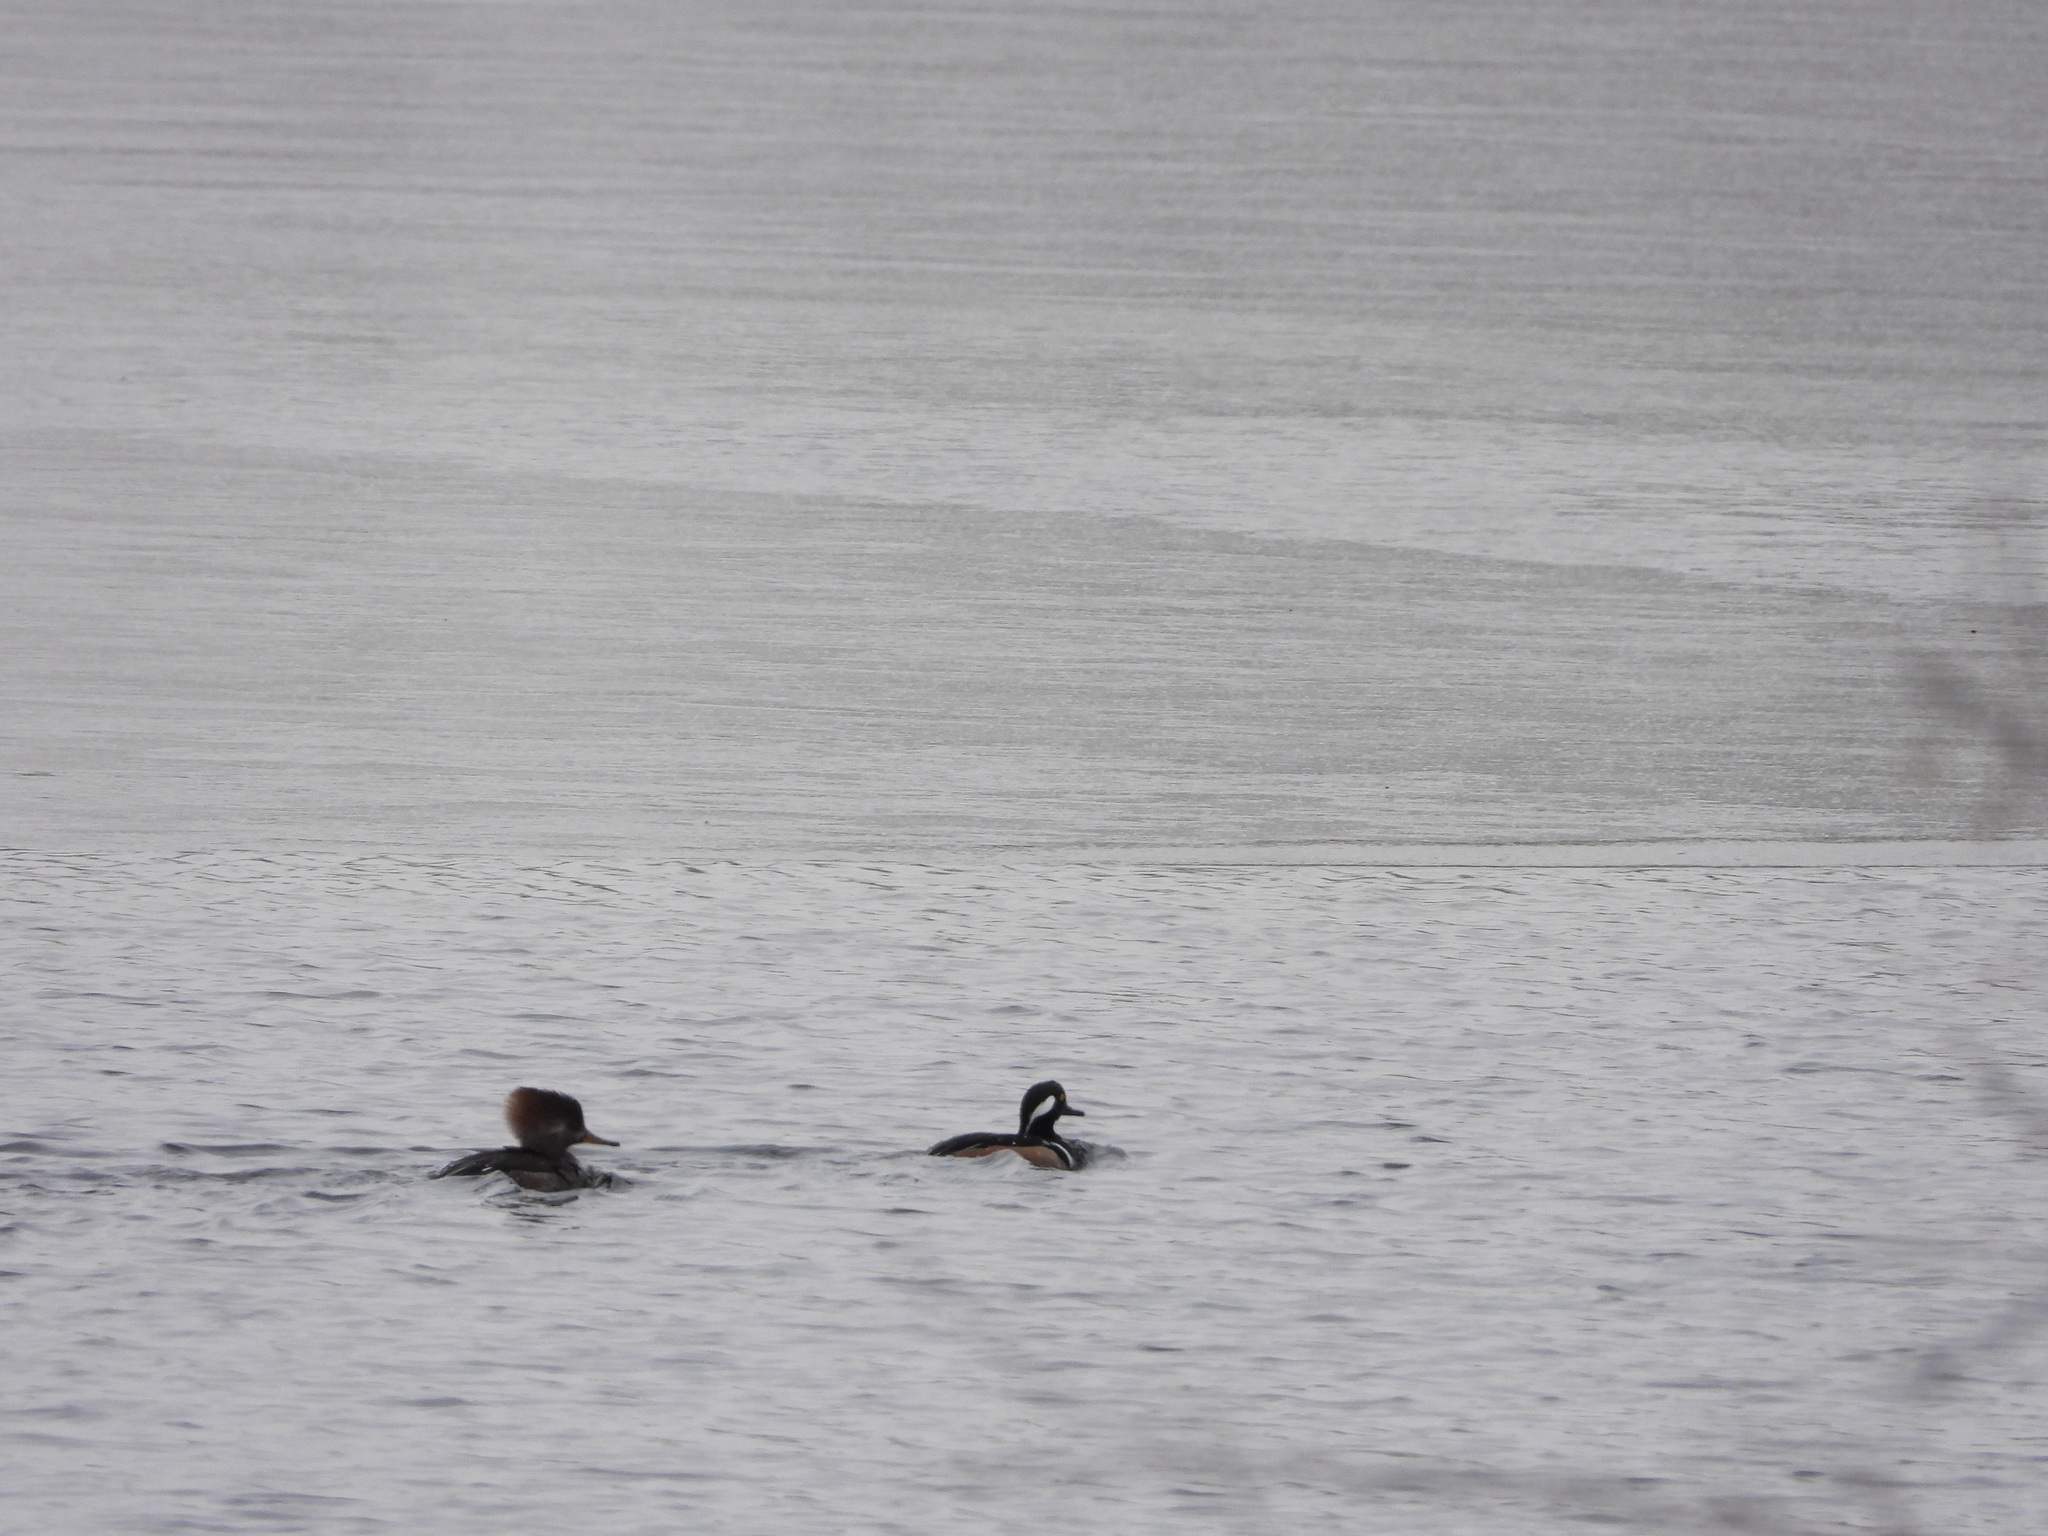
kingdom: Animalia
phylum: Chordata
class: Aves
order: Anseriformes
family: Anatidae
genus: Lophodytes
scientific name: Lophodytes cucullatus
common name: Hooded merganser
